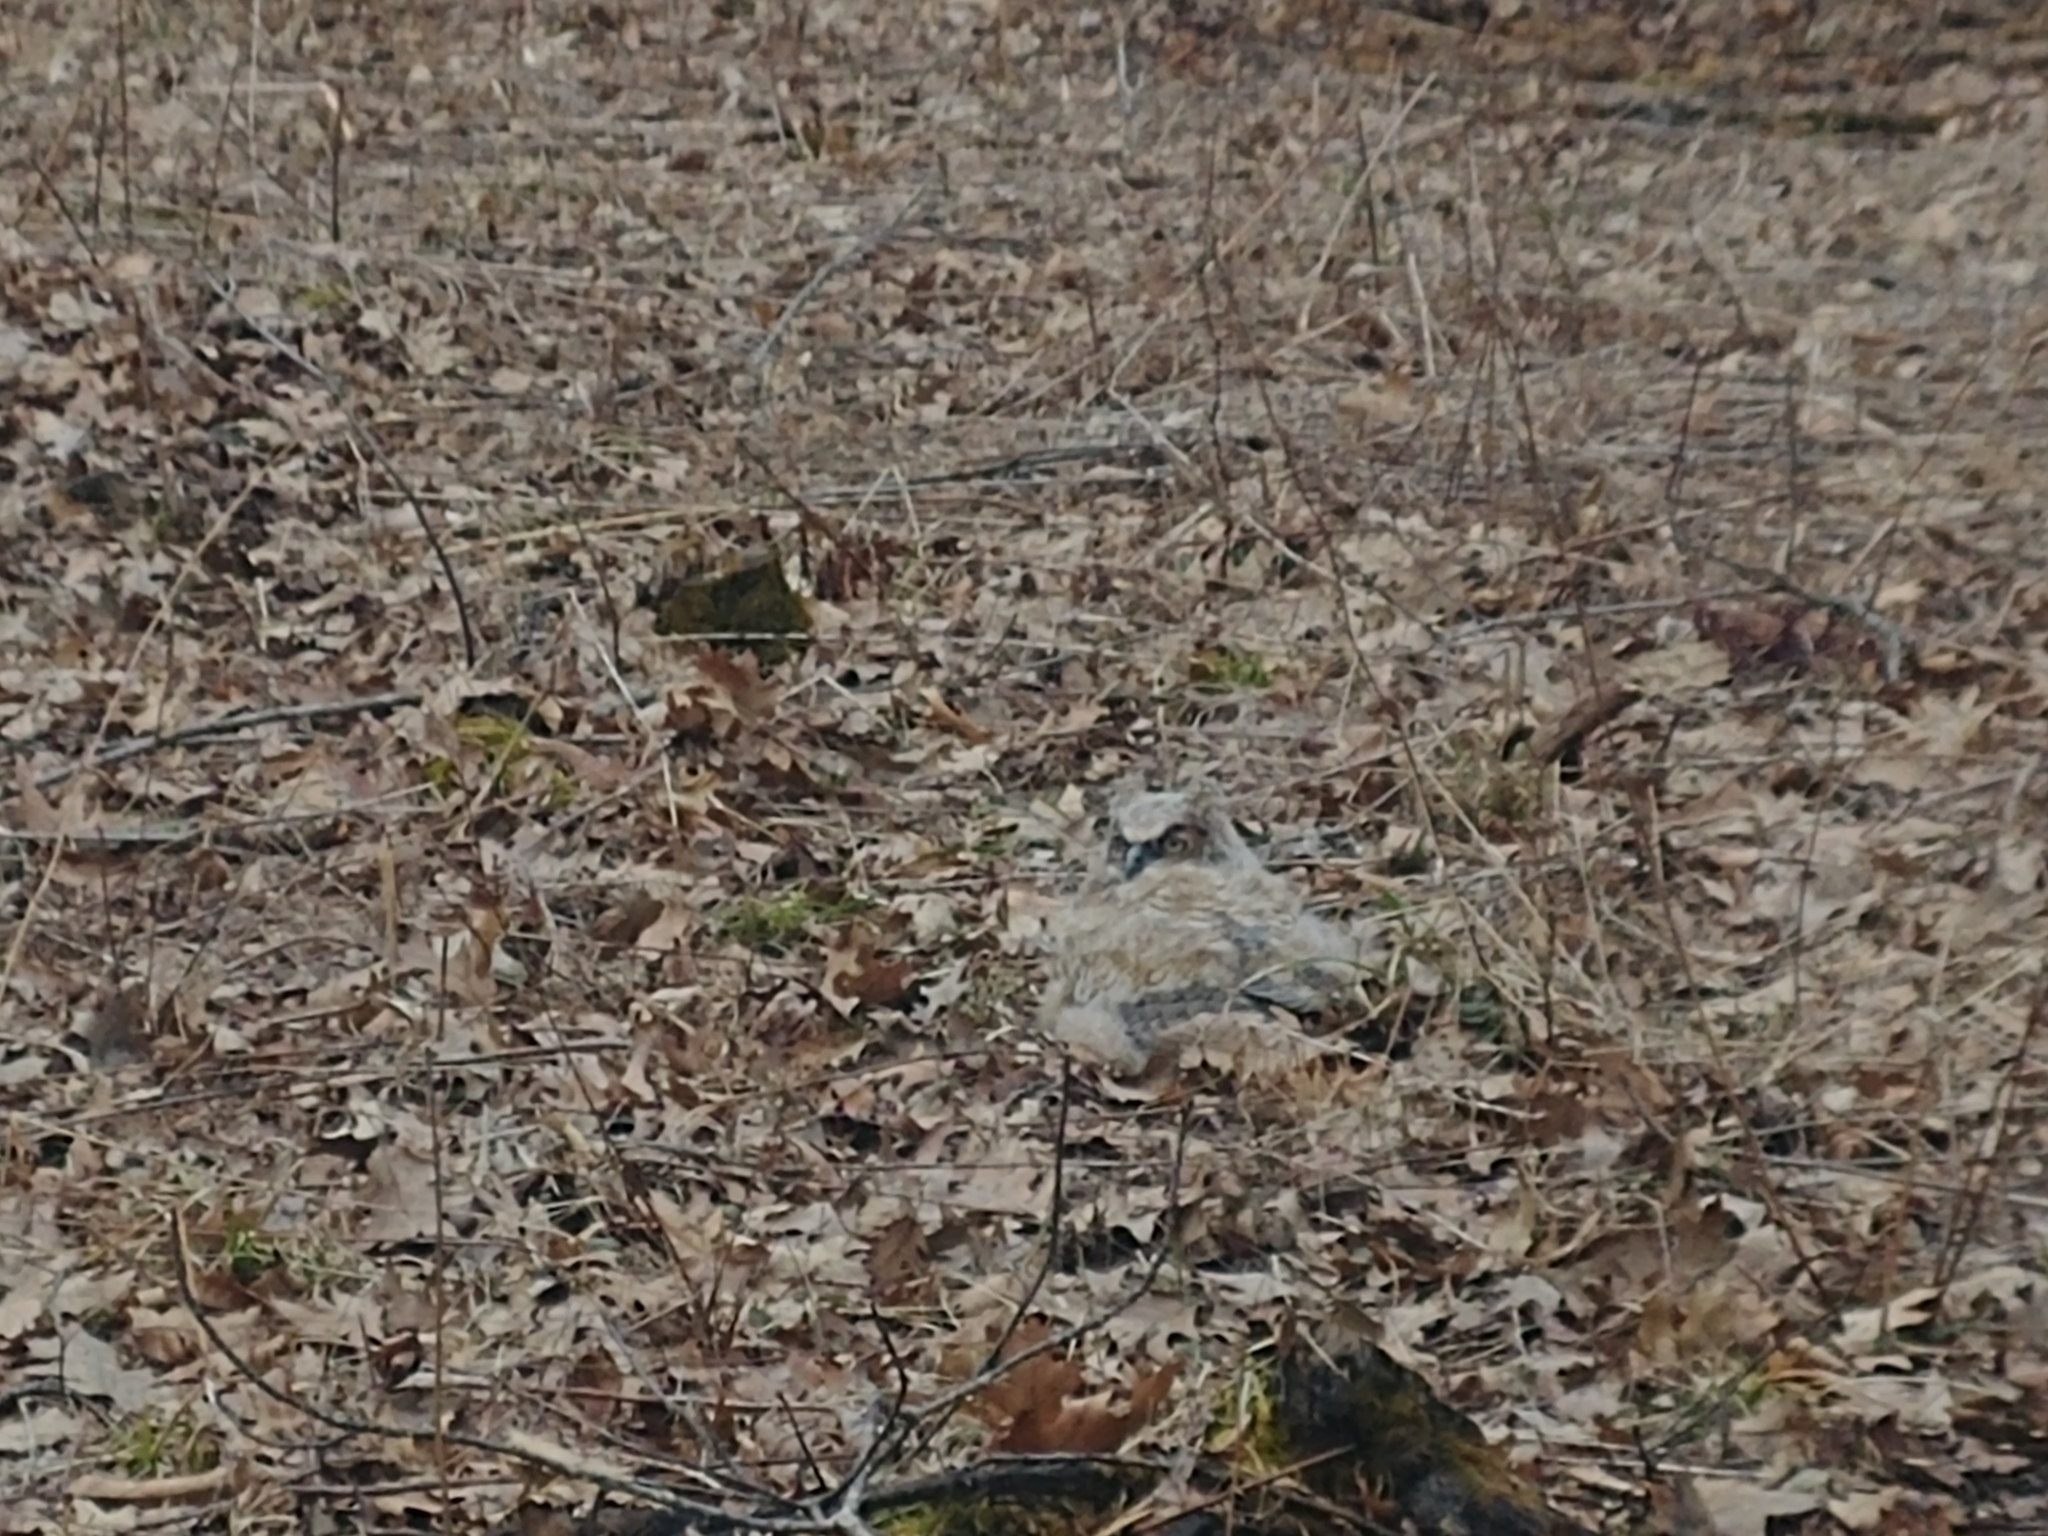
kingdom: Animalia
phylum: Chordata
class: Aves
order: Strigiformes
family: Strigidae
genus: Bubo
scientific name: Bubo virginianus
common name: Great horned owl
